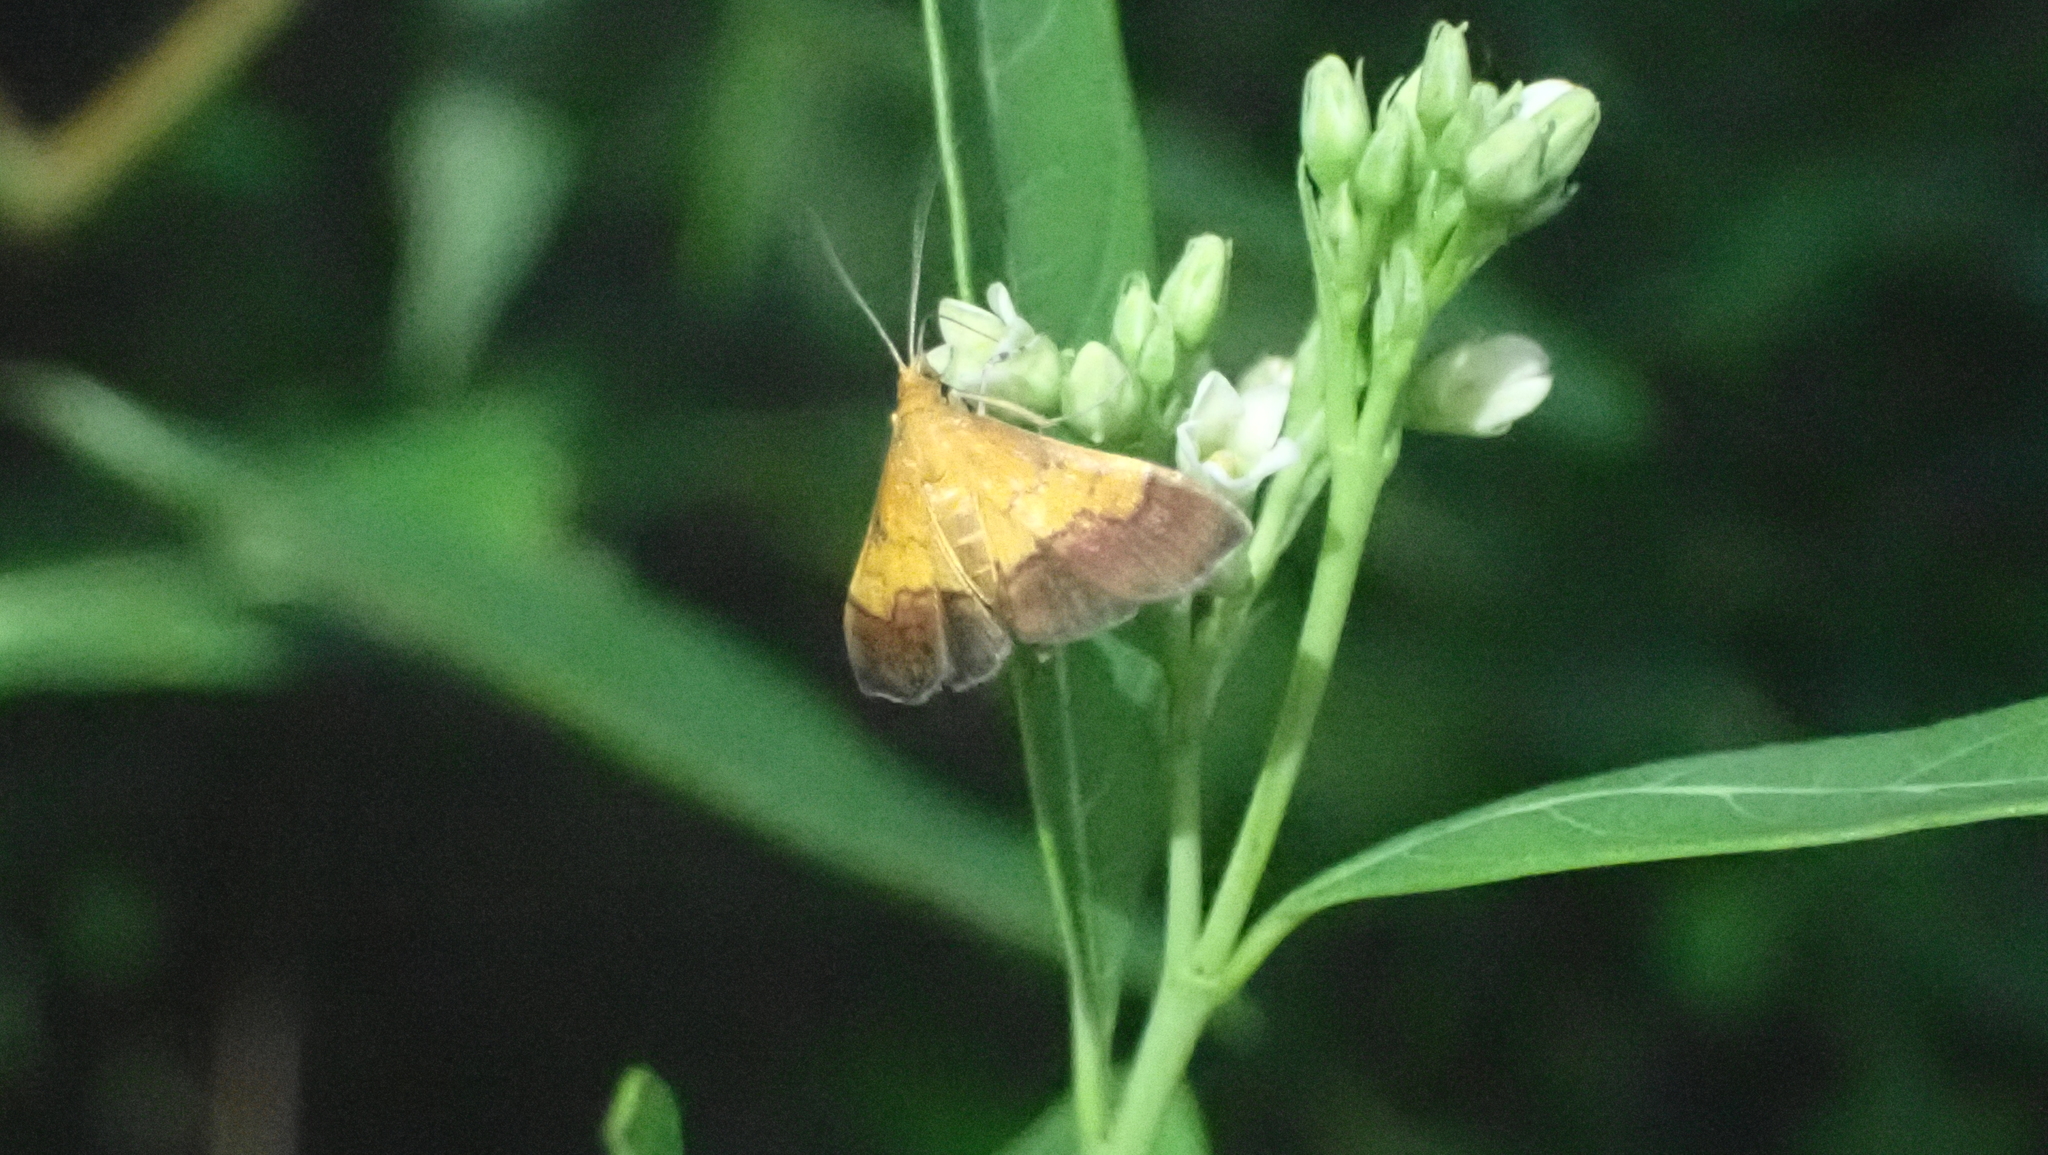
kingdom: Animalia
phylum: Arthropoda
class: Insecta
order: Lepidoptera
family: Crambidae
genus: Pyrausta
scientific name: Pyrausta bicoloralis
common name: Bicolored pyrausta moth
